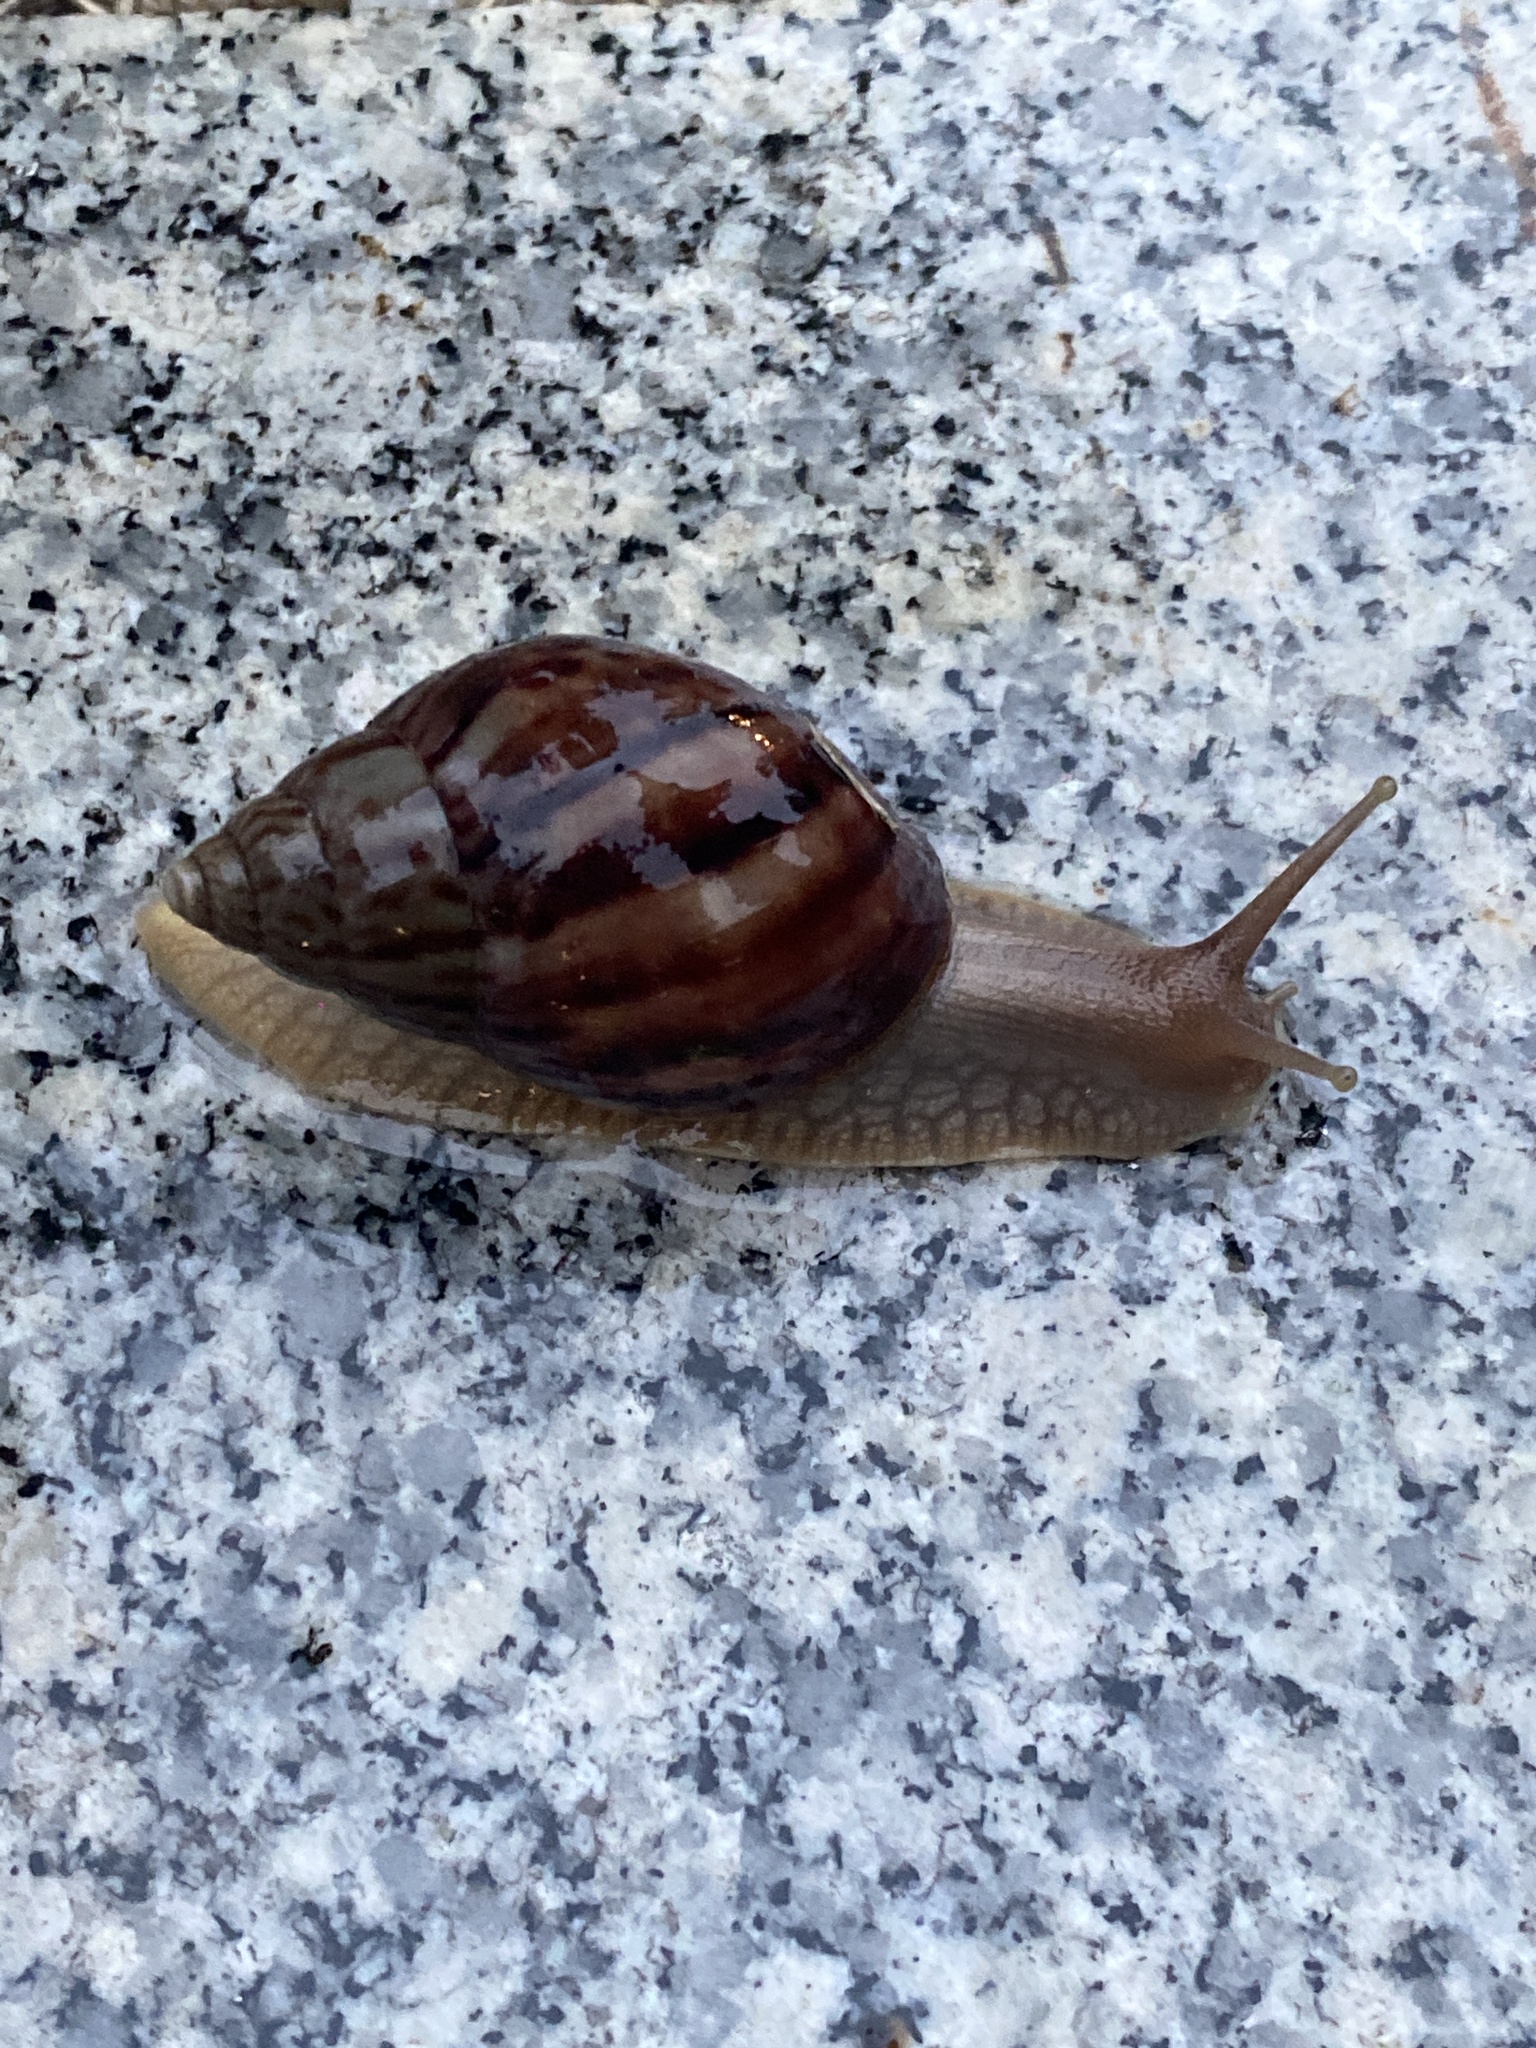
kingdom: Animalia
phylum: Mollusca
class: Gastropoda
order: Stylommatophora
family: Achatinidae
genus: Lissachatina
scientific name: Lissachatina immaculata
